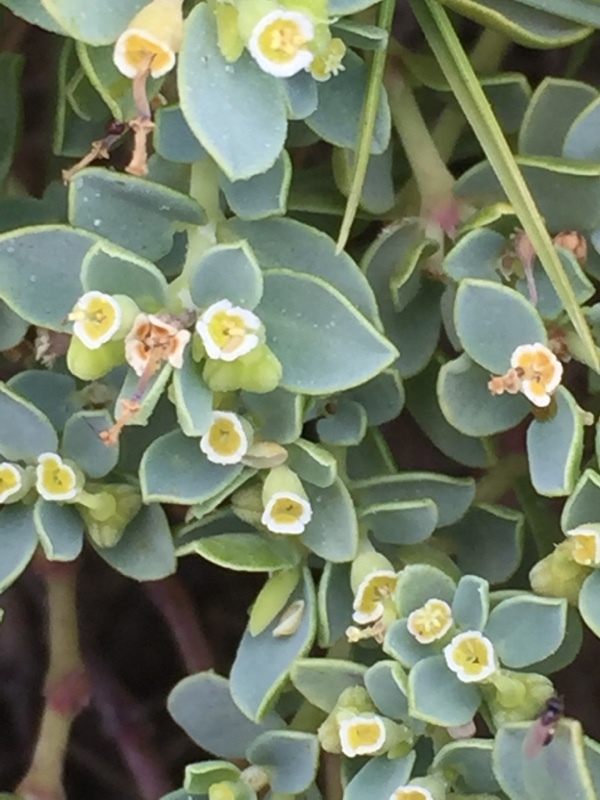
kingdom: Plantae
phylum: Tracheophyta
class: Magnoliopsida
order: Malpighiales
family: Euphorbiaceae
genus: Euphorbia
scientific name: Euphorbia mesembryanthemifolia
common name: Coastal beach sandmat
